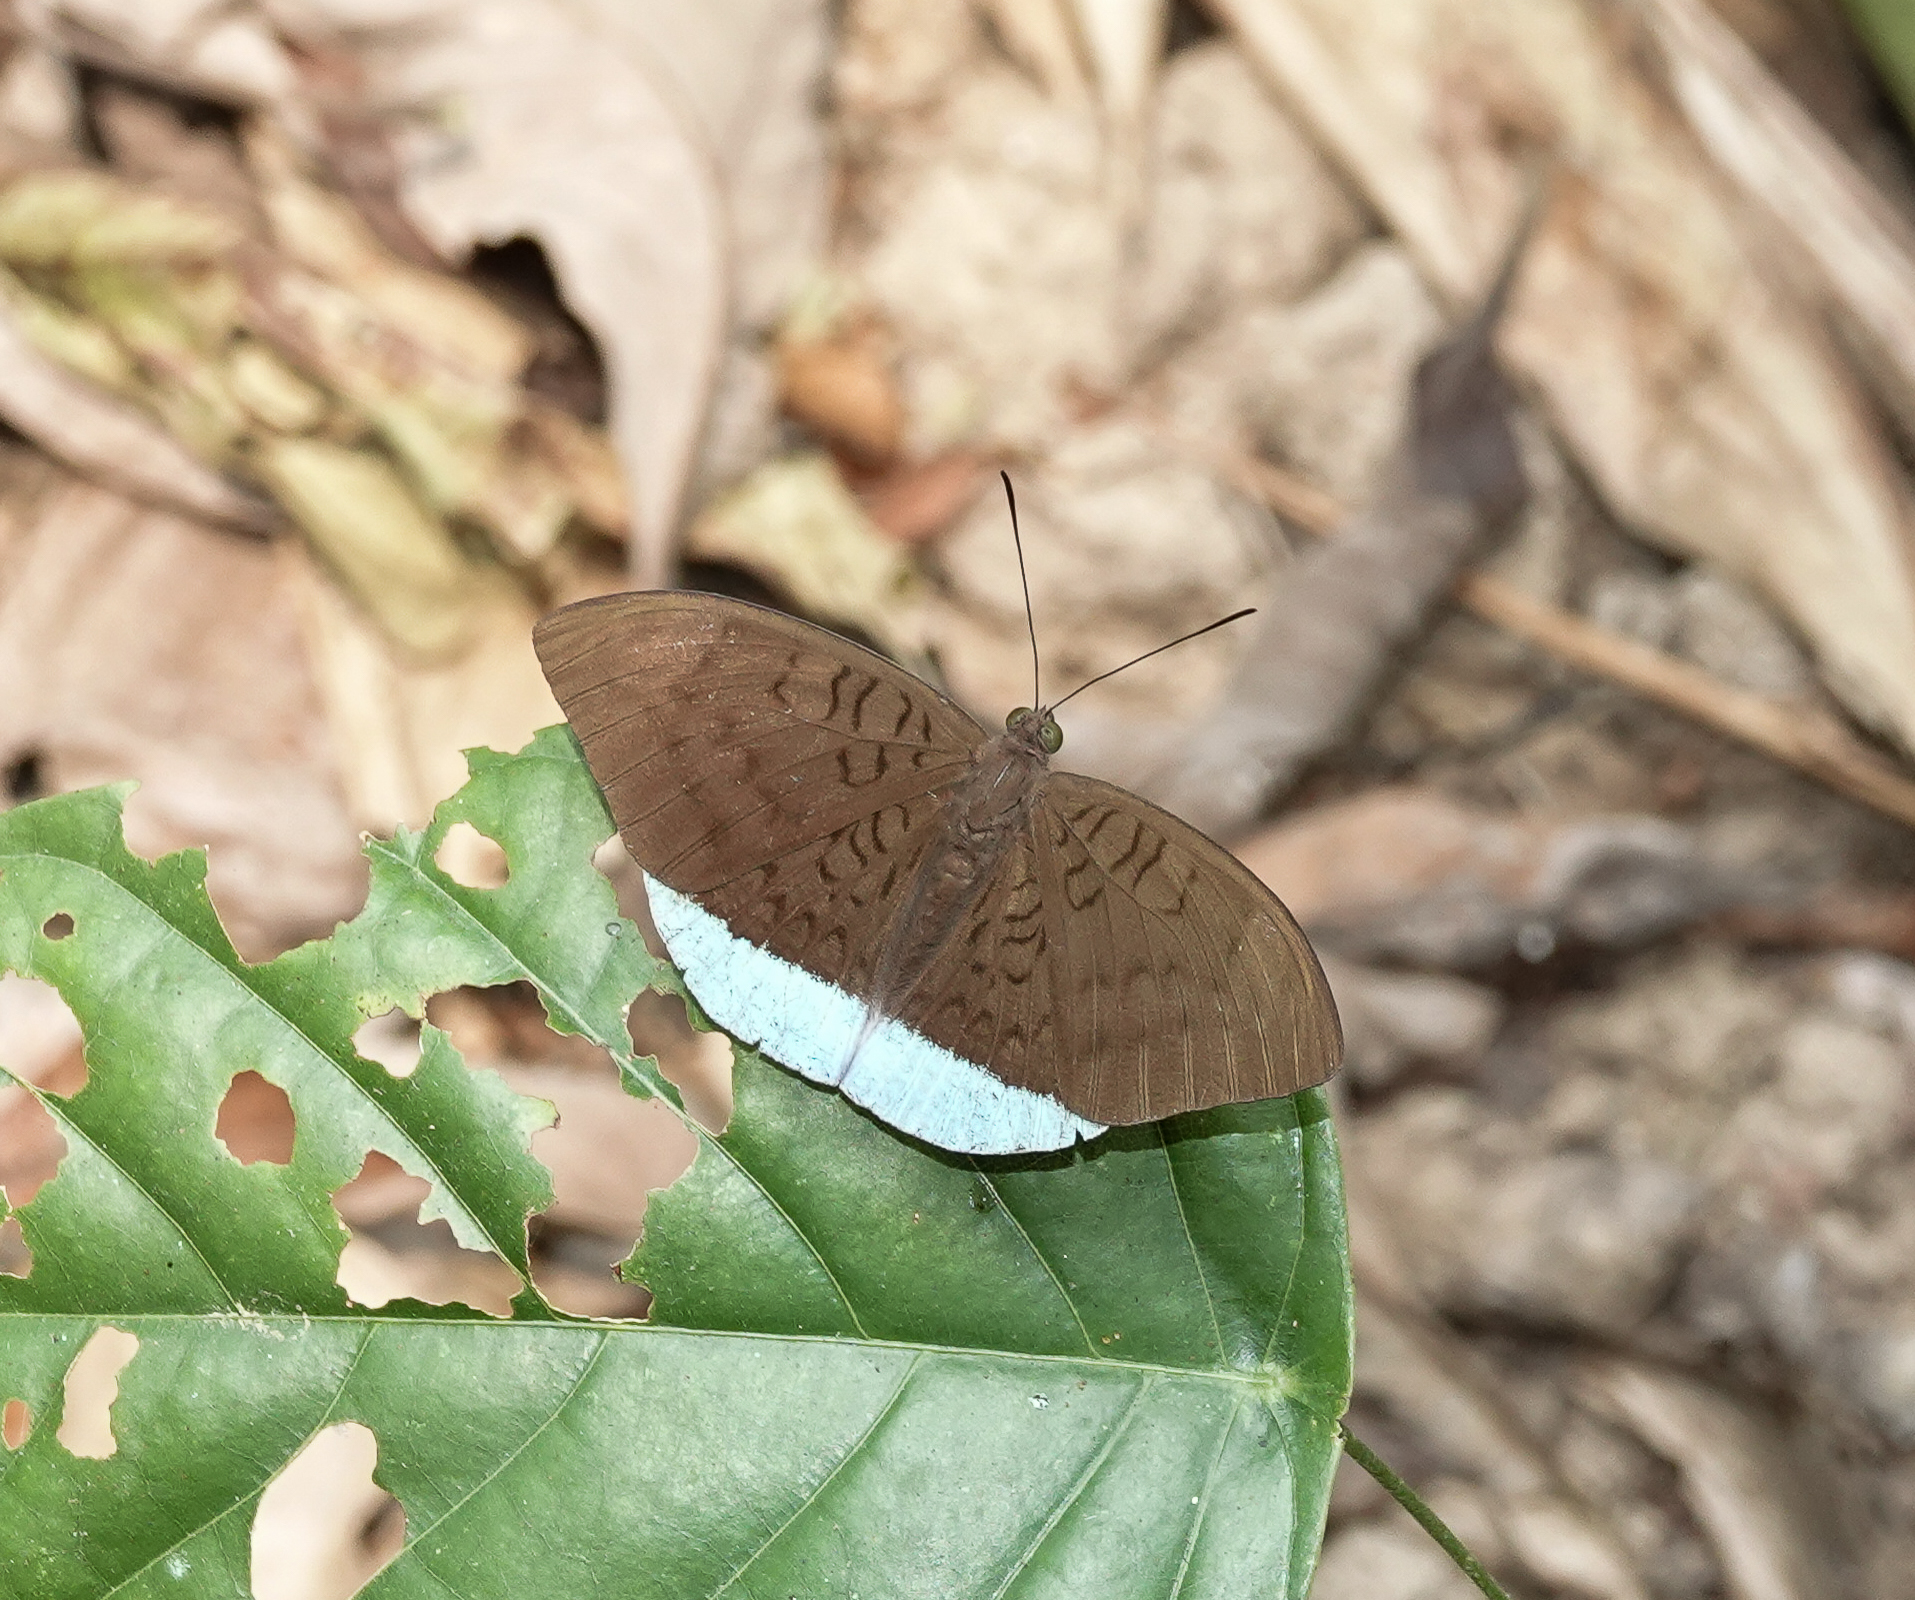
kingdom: Animalia
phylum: Arthropoda
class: Insecta
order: Lepidoptera
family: Nymphalidae
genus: Tanaecia
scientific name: Tanaecia julii
